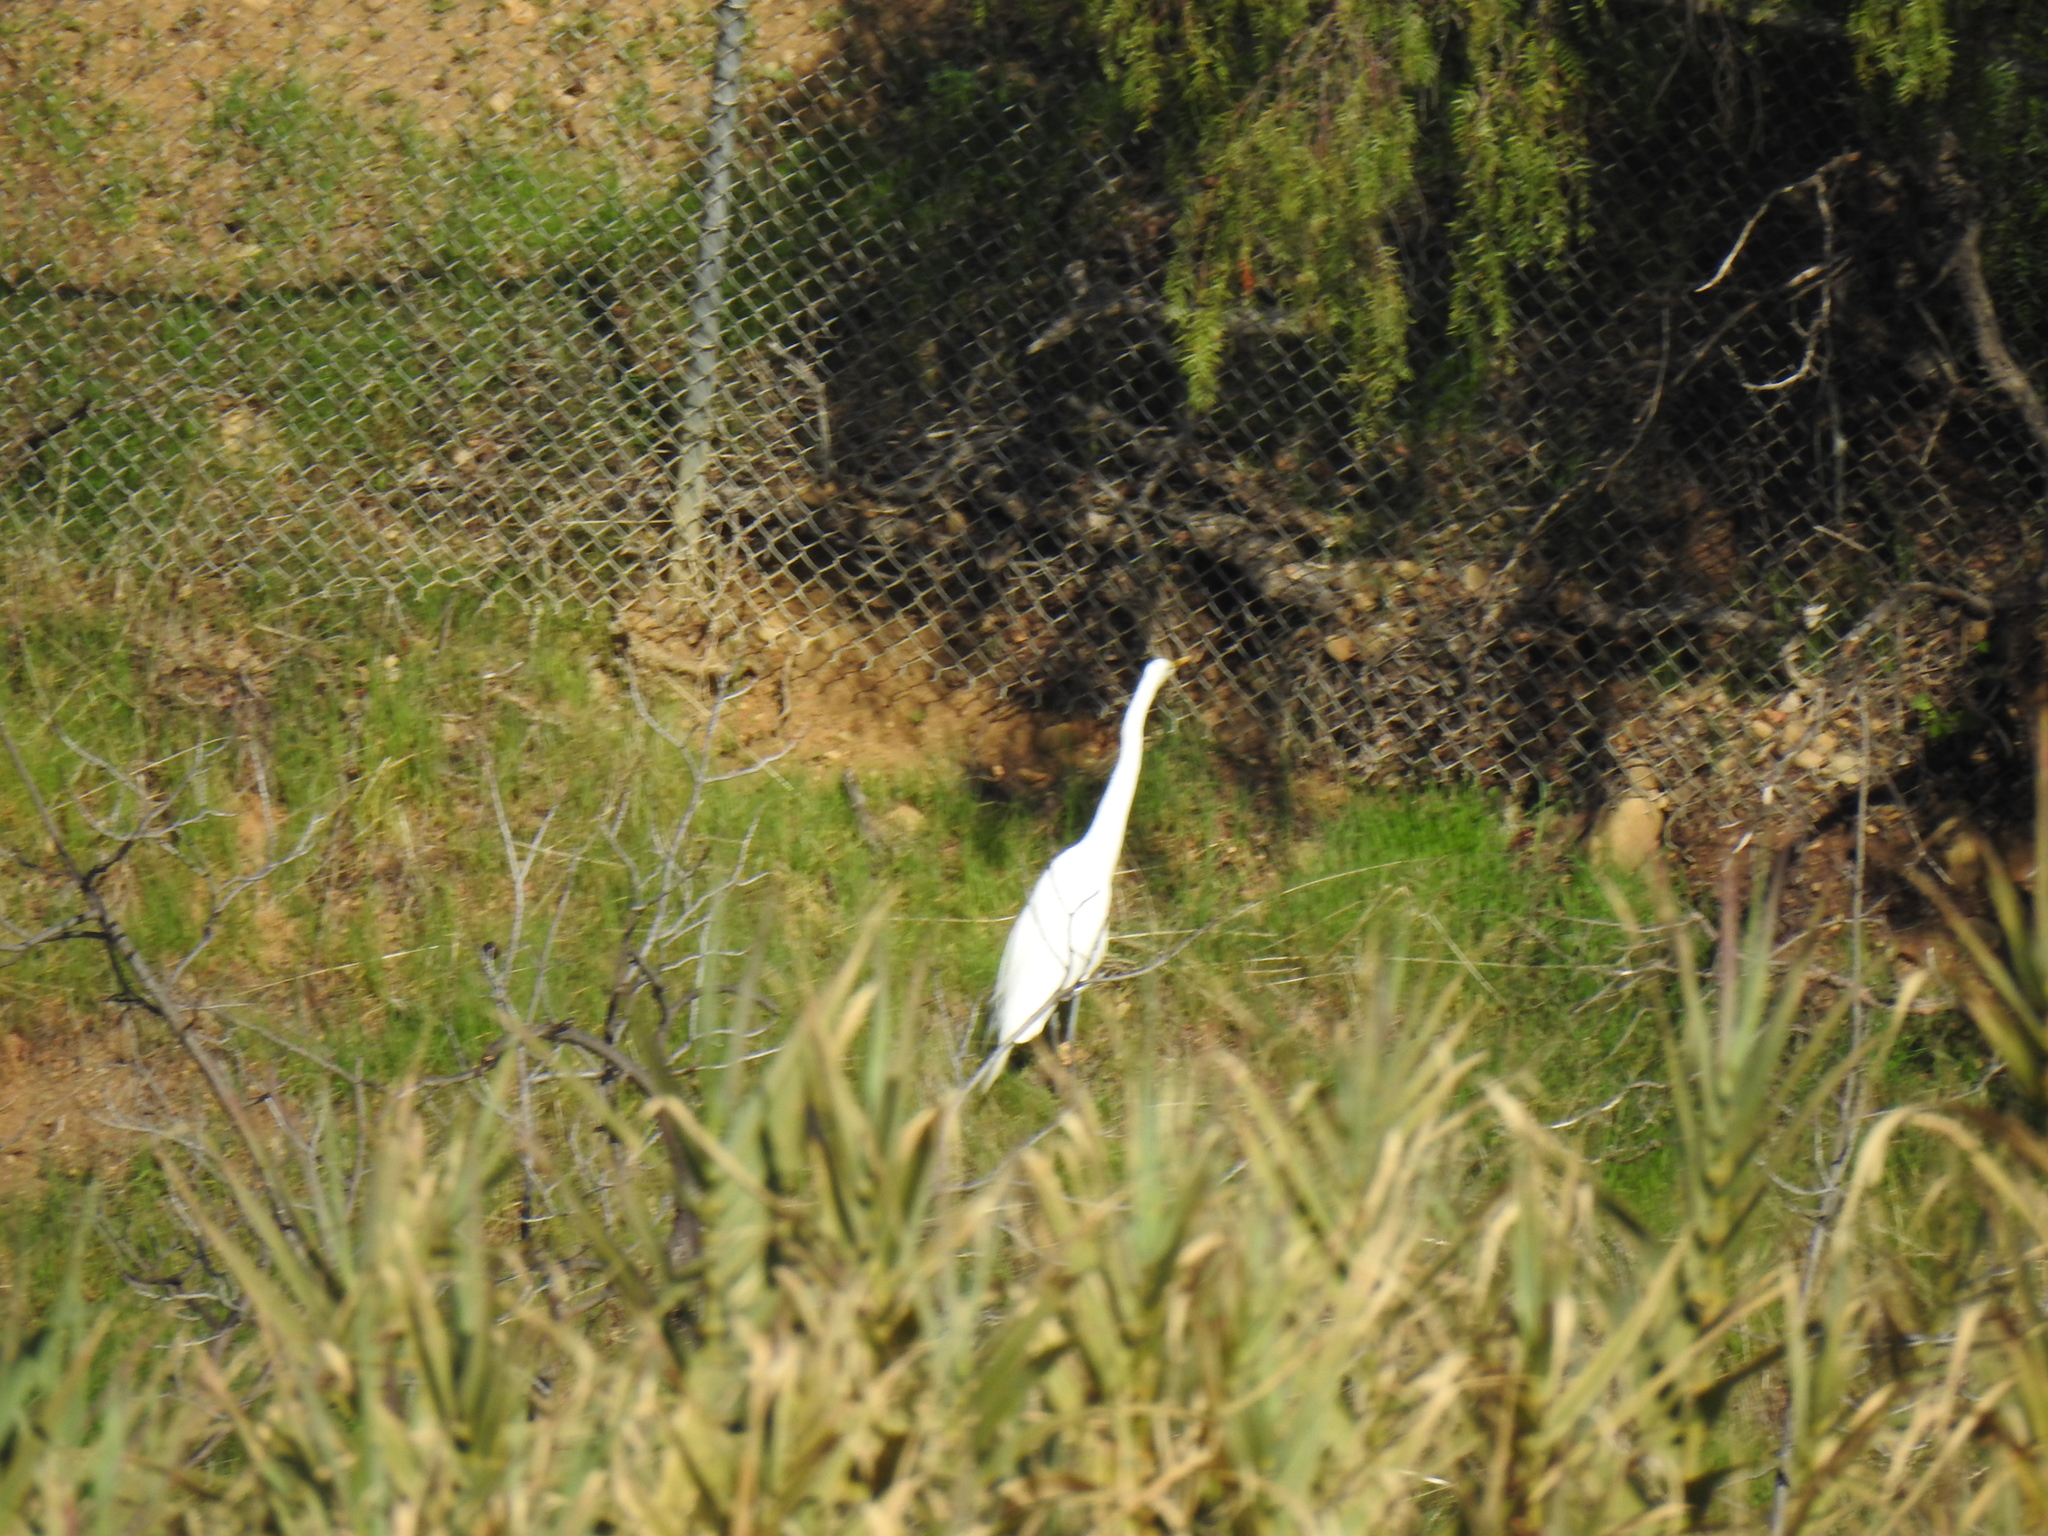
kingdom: Animalia
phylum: Chordata
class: Aves
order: Pelecaniformes
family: Ardeidae
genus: Ardea
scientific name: Ardea alba
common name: Great egret
